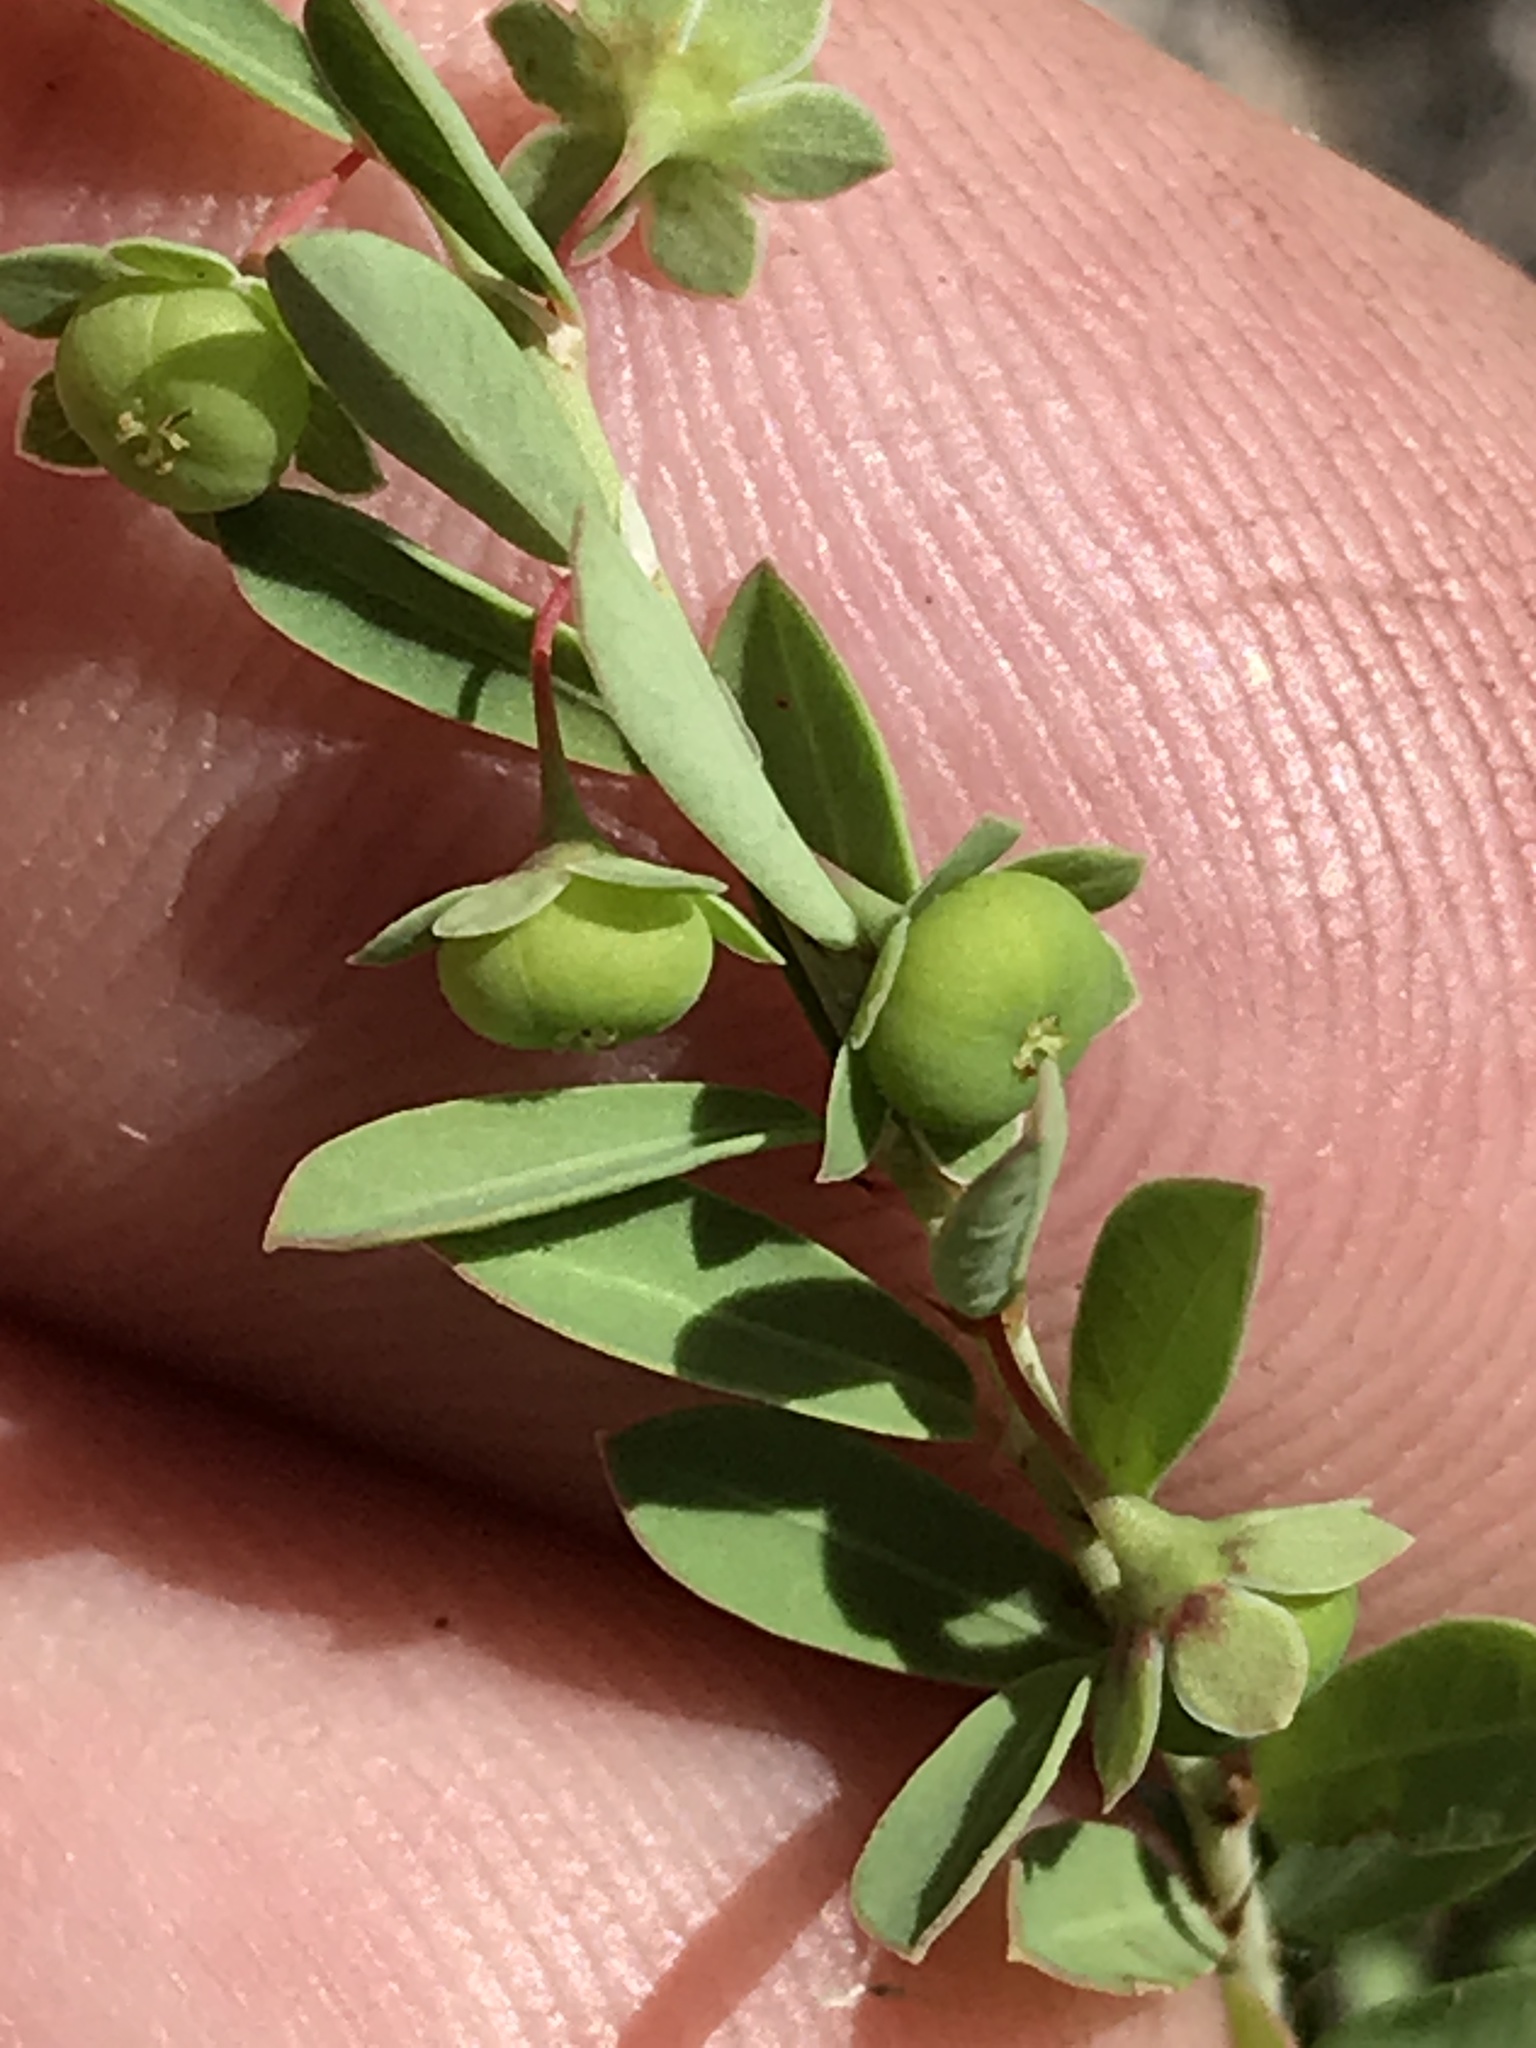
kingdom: Plantae
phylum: Tracheophyta
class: Magnoliopsida
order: Malpighiales
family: Phyllanthaceae
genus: Phyllanthus
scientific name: Phyllanthus polygonoides
